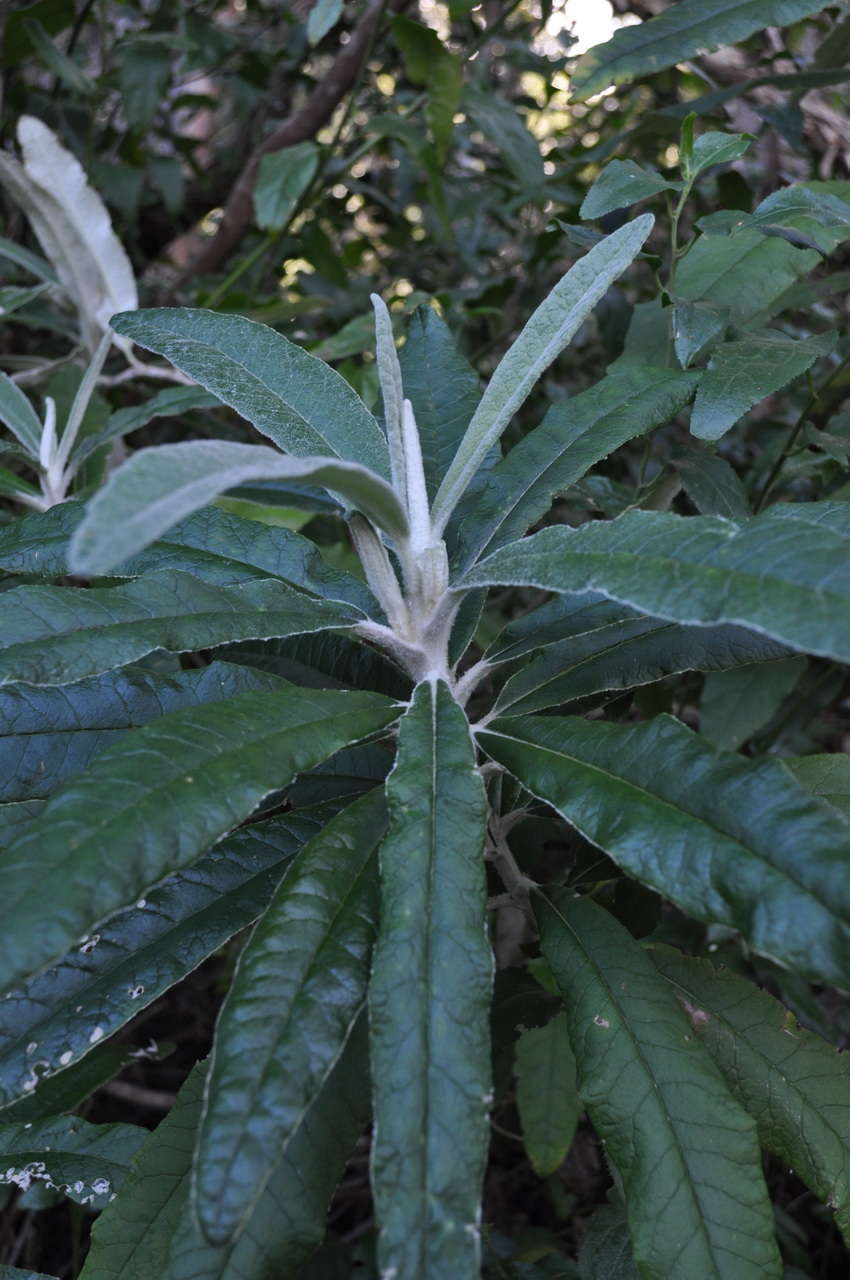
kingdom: Plantae
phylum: Tracheophyta
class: Magnoliopsida
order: Asterales
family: Asteraceae
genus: Bedfordia
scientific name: Bedfordia arborescens
